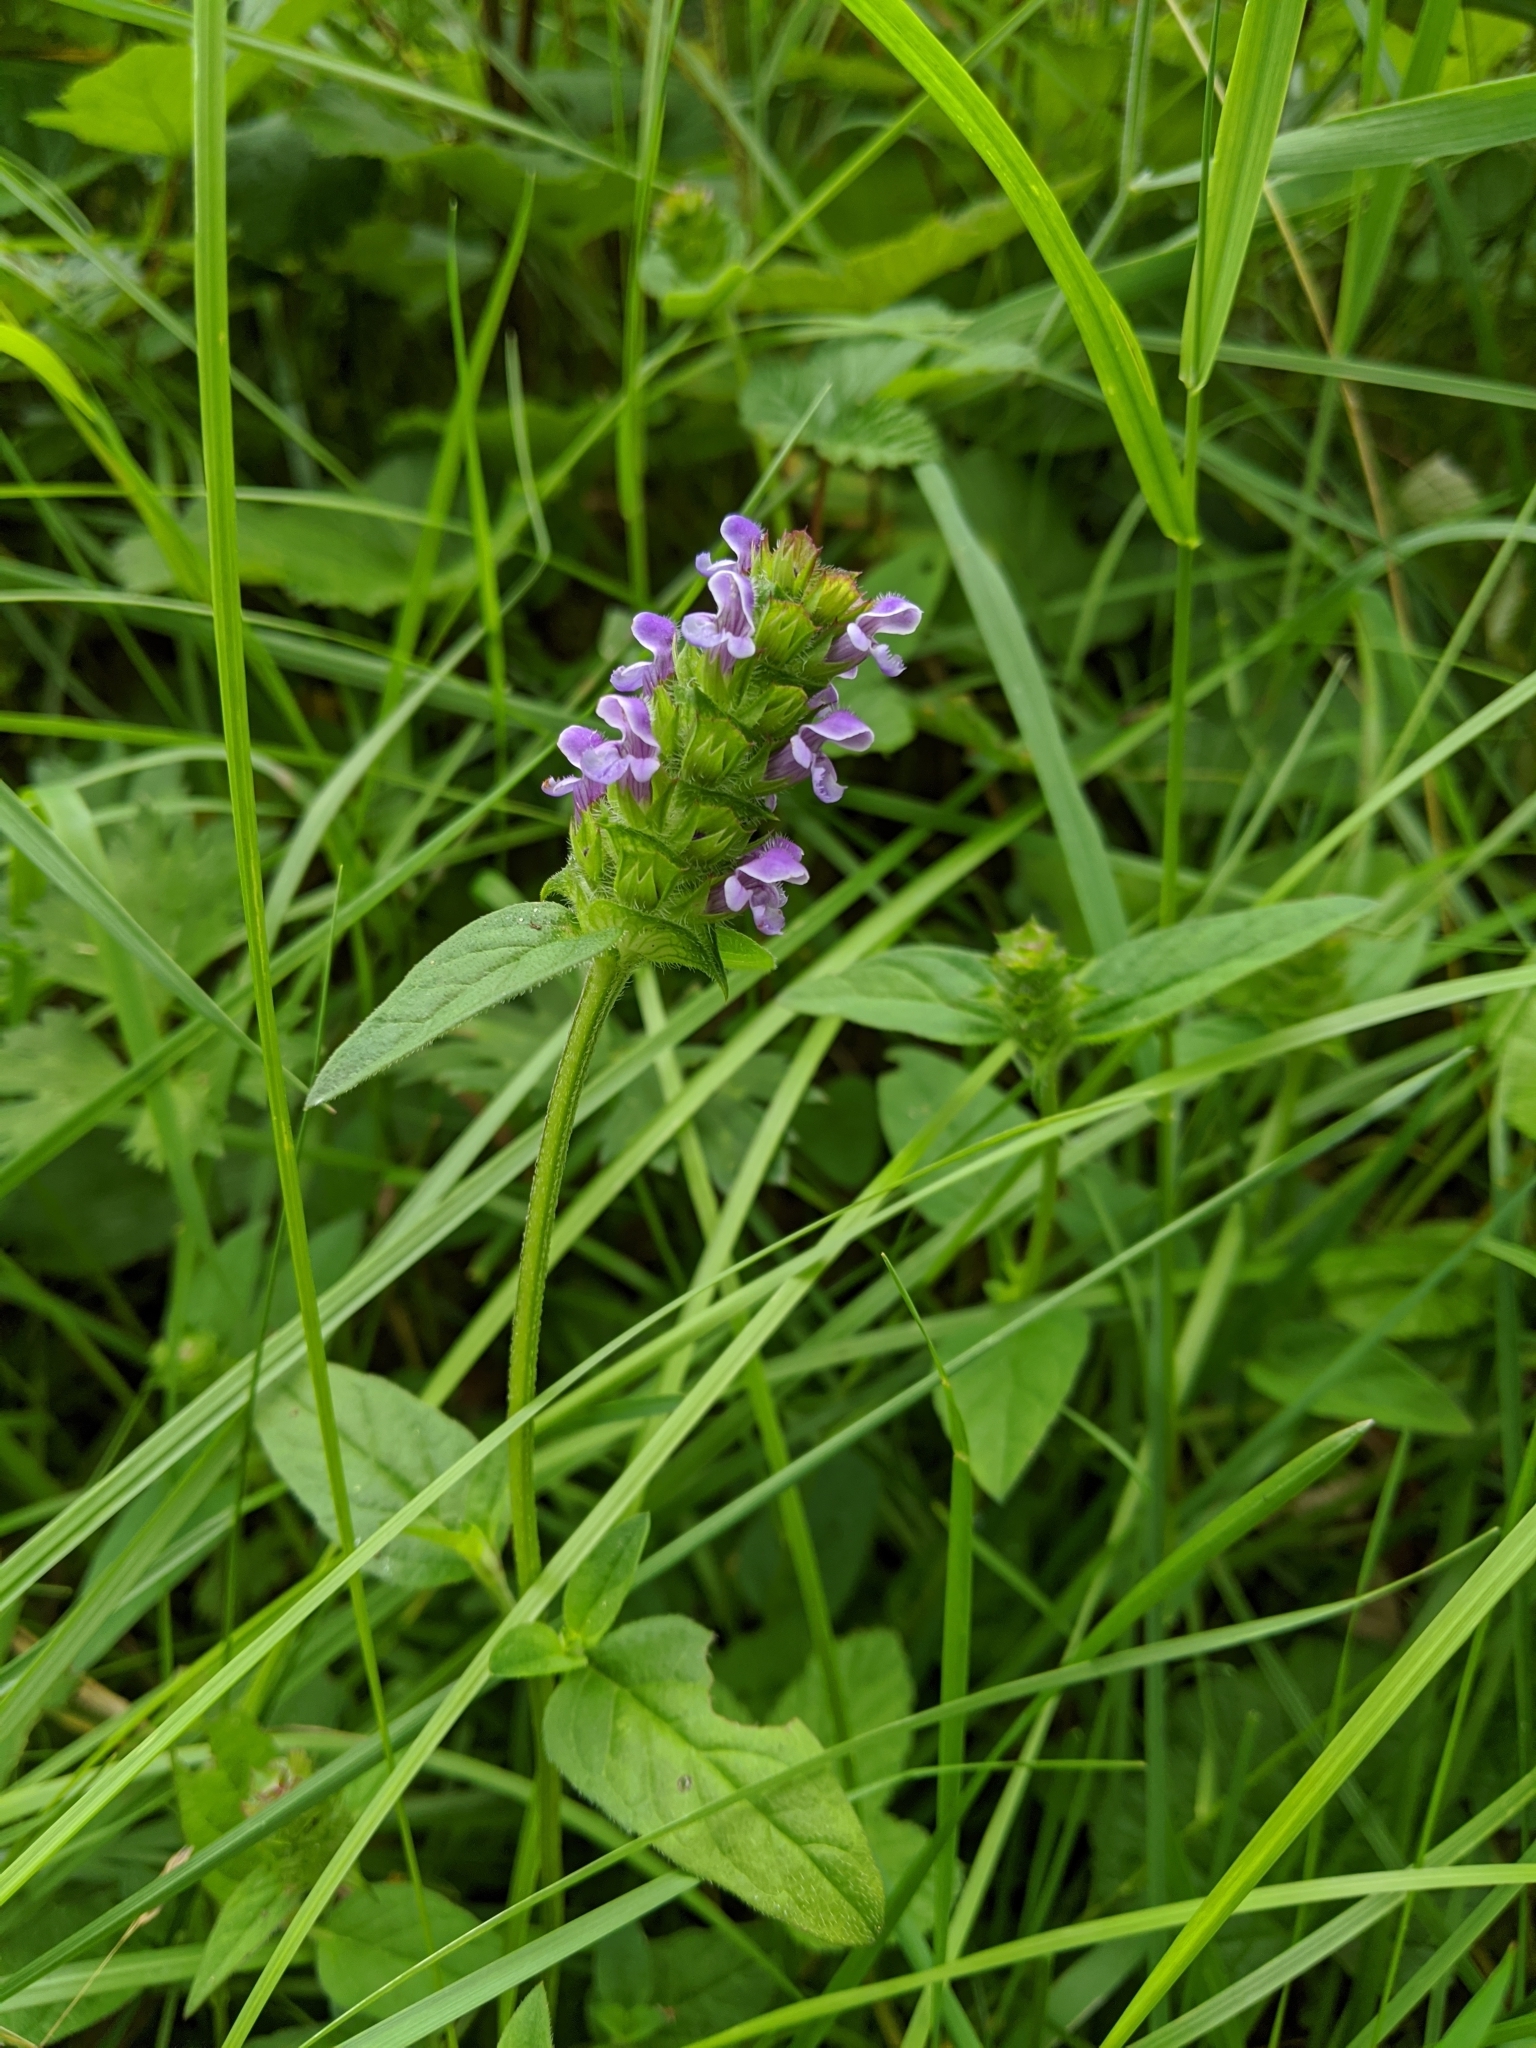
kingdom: Plantae
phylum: Tracheophyta
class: Magnoliopsida
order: Lamiales
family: Lamiaceae
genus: Prunella
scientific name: Prunella vulgaris
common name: Heal-all
